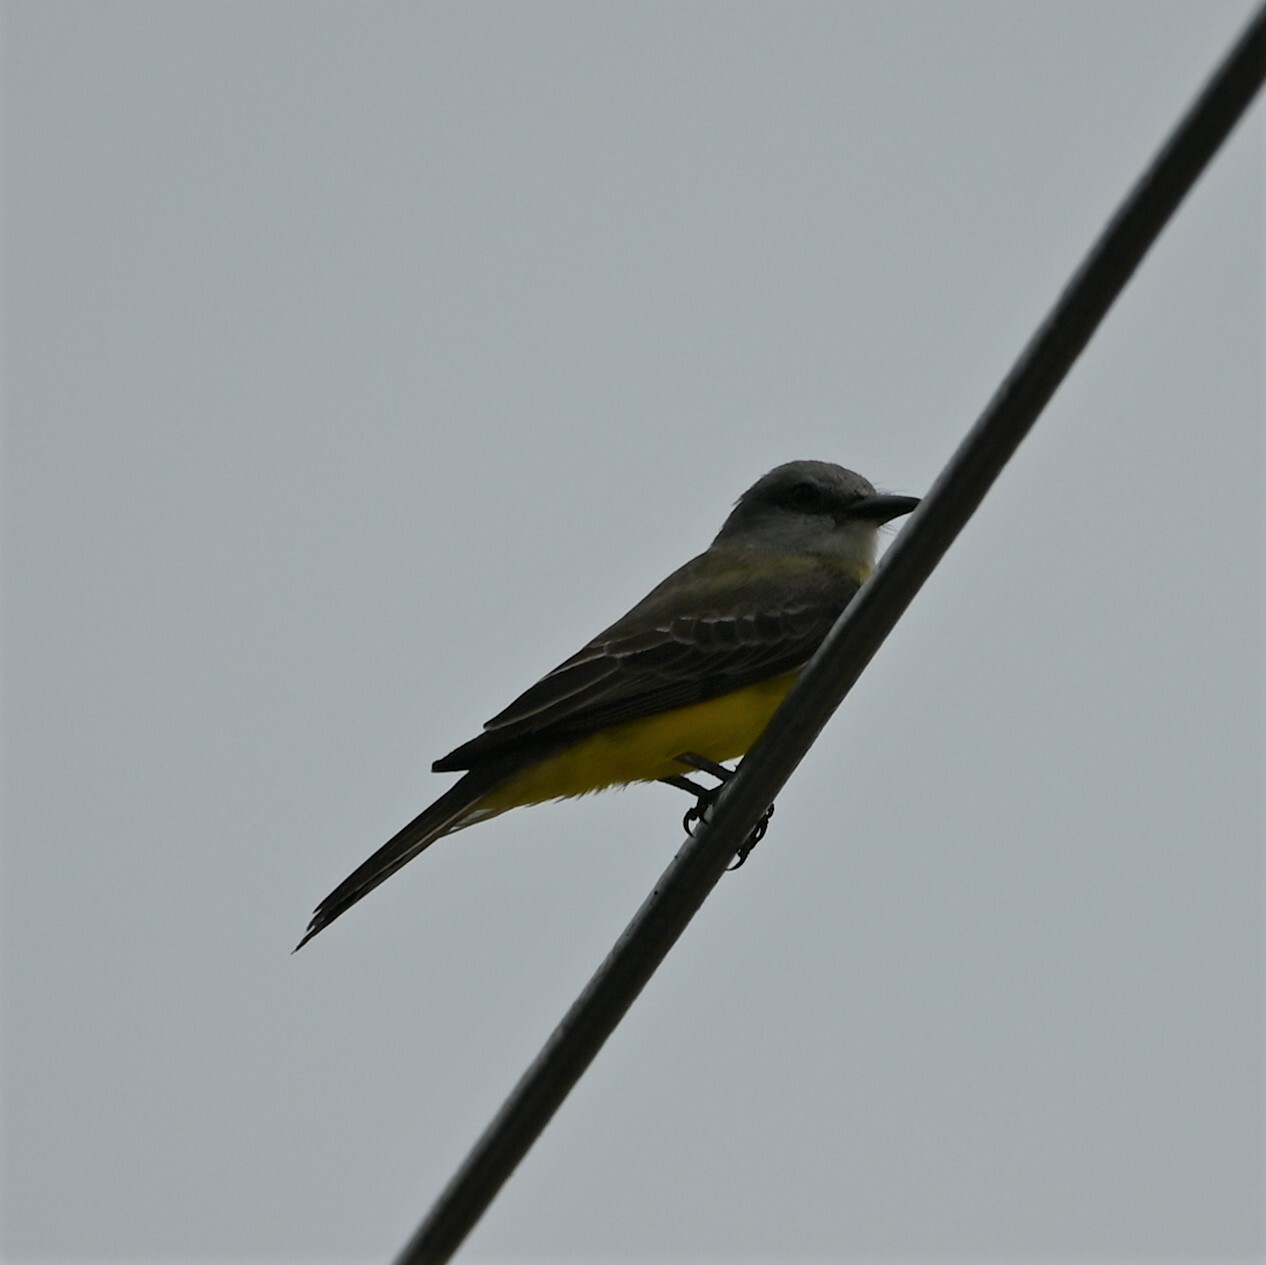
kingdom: Animalia
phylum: Chordata
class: Aves
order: Passeriformes
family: Tyrannidae
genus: Tyrannus
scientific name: Tyrannus melancholicus
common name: Tropical kingbird
